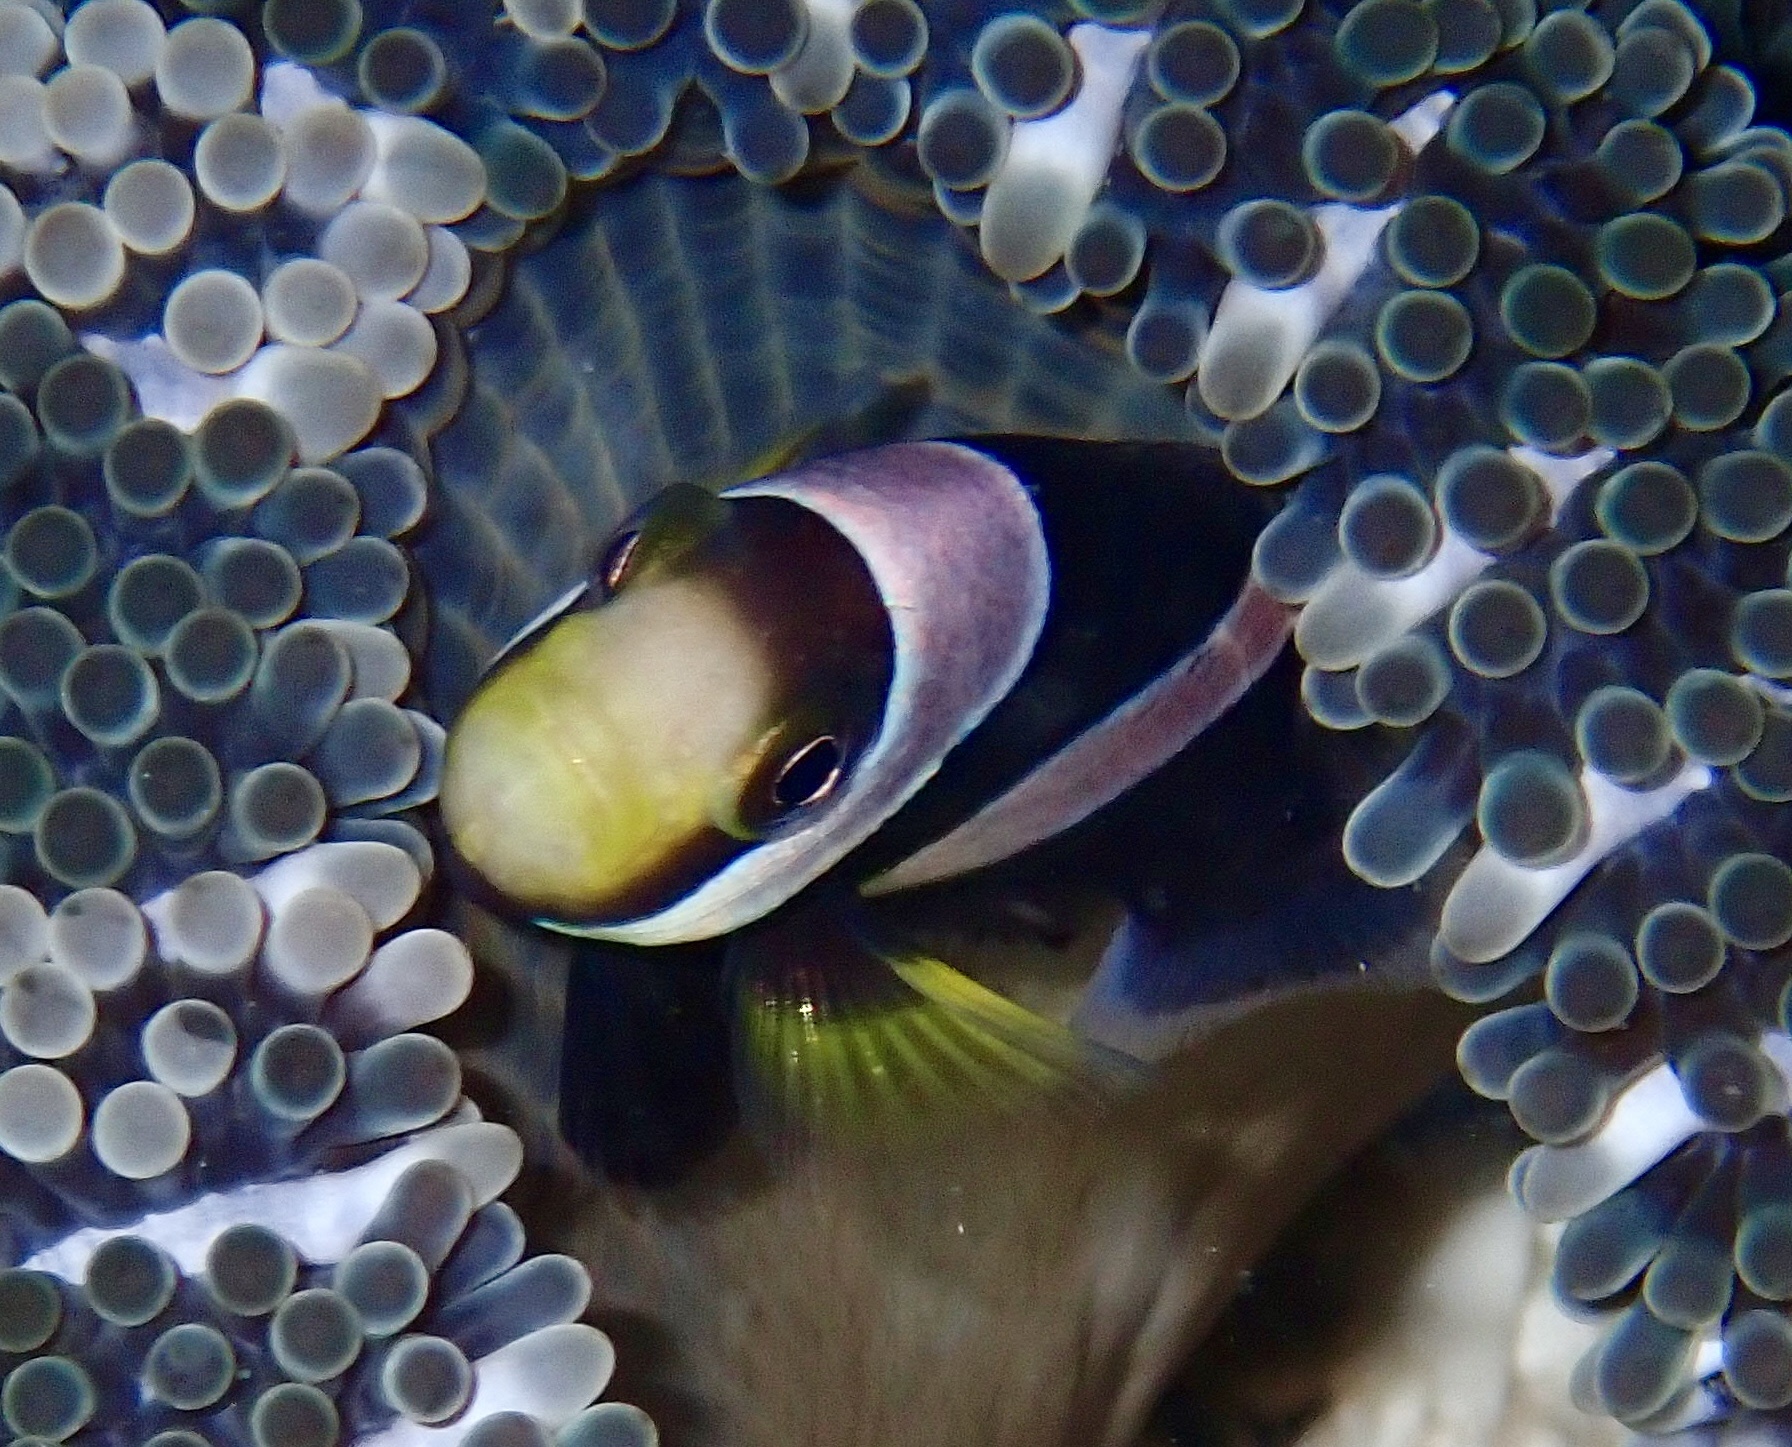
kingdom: Animalia
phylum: Chordata
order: Perciformes
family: Pomacentridae
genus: Amphiprion
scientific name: Amphiprion polymnus
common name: Saddleback anemonefish
